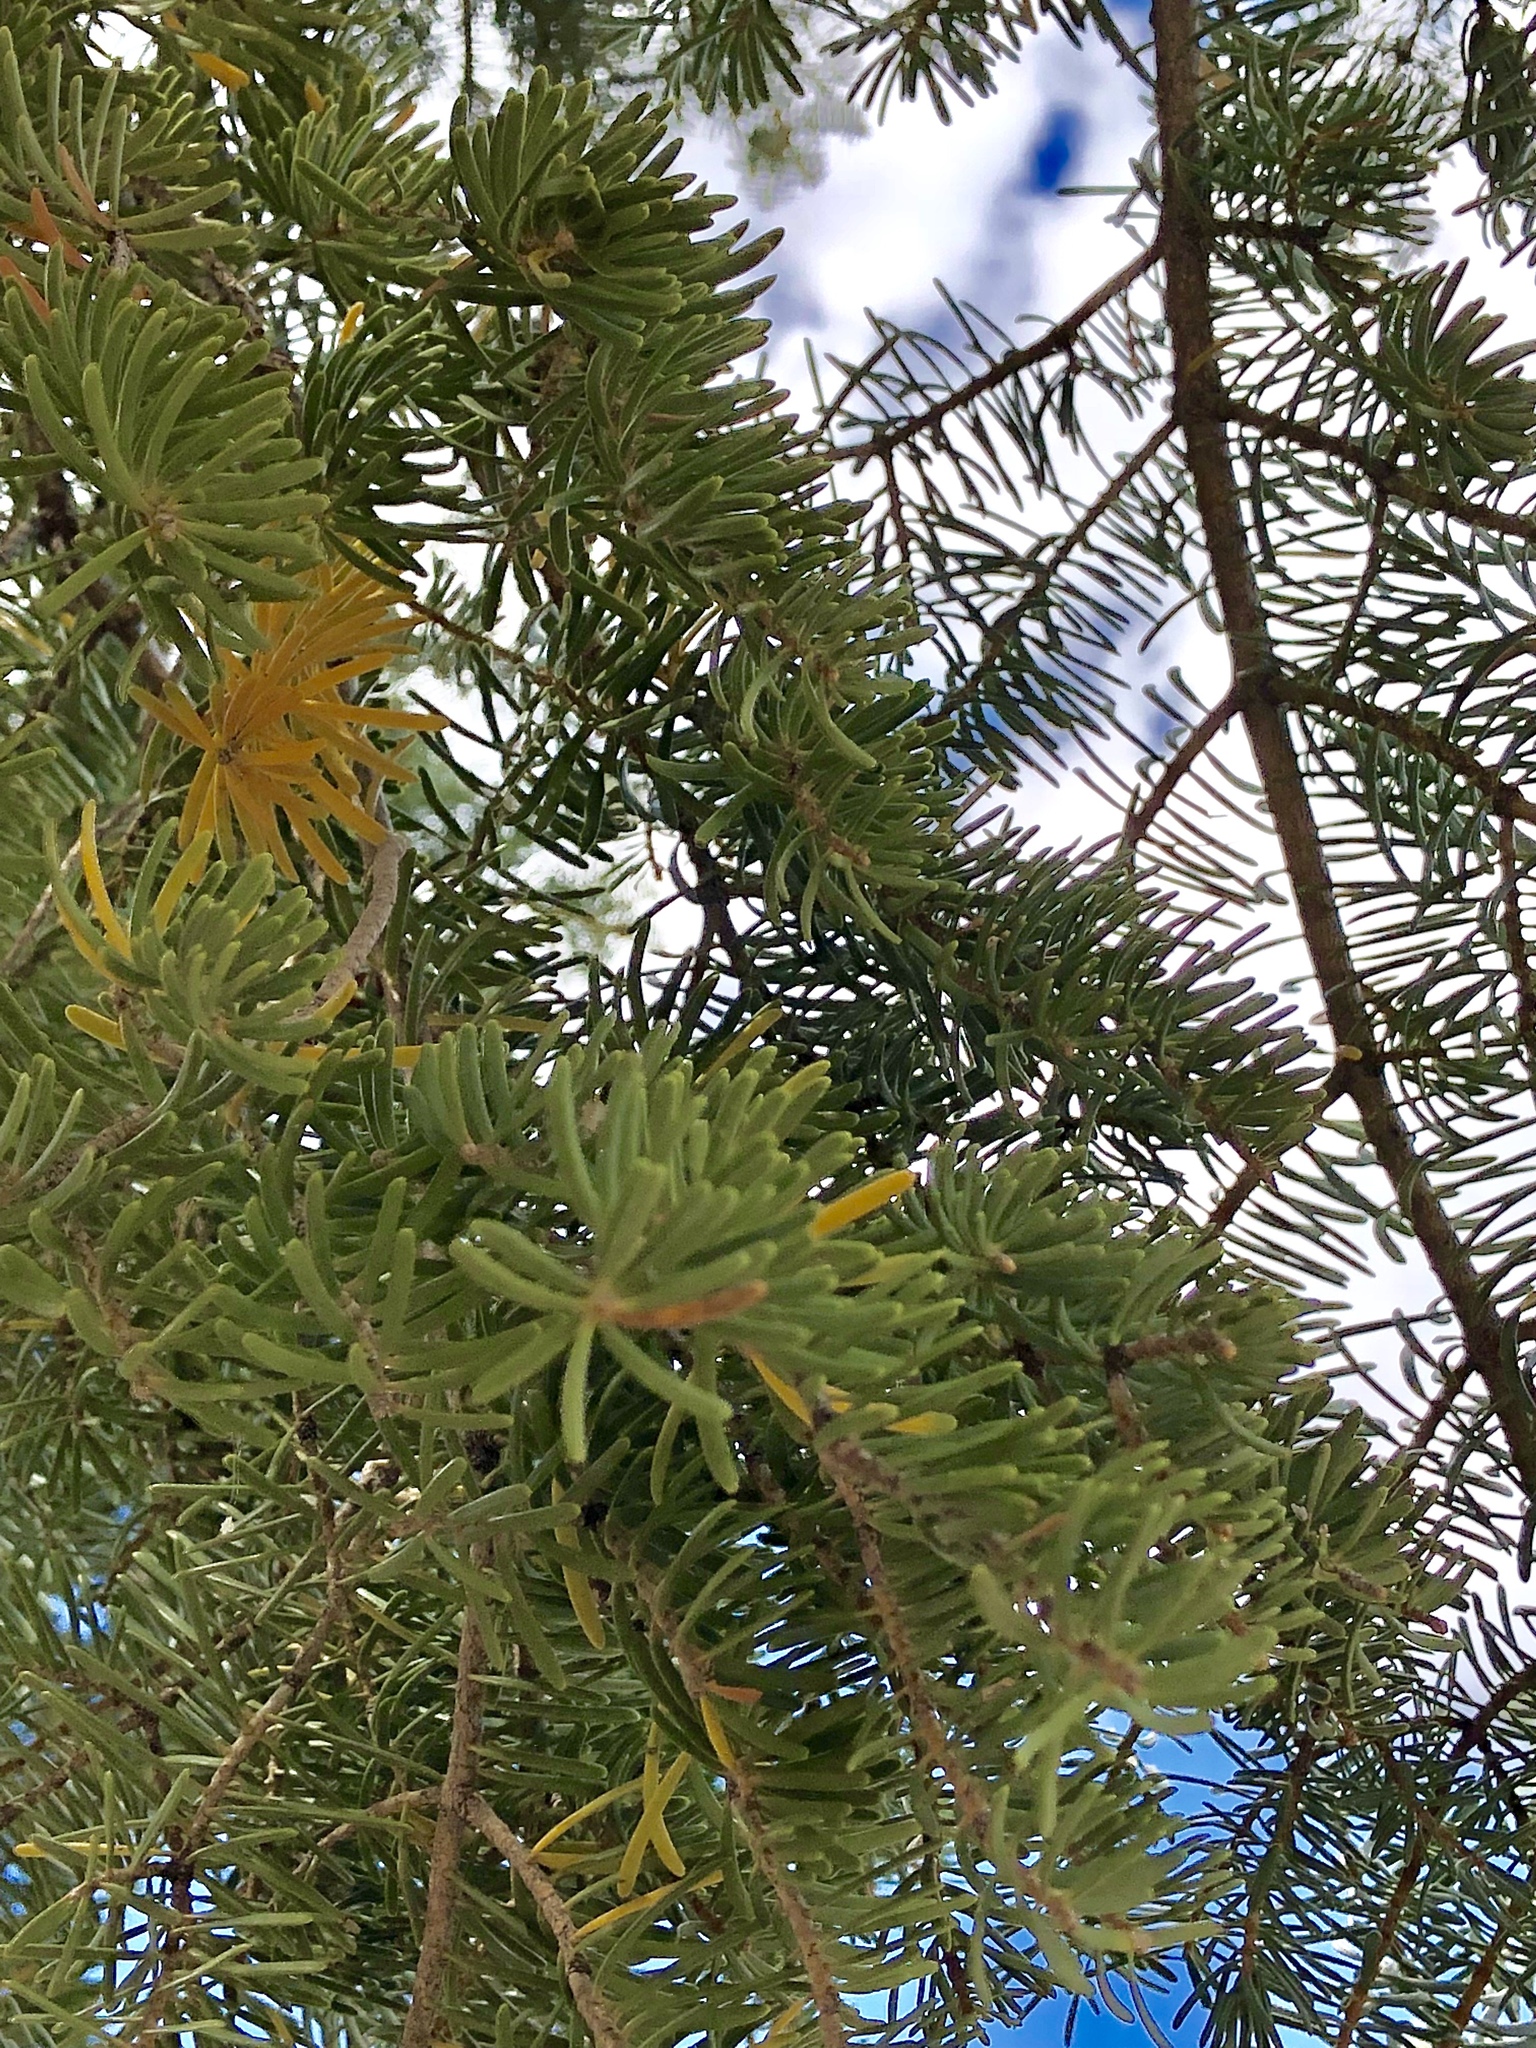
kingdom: Plantae
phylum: Tracheophyta
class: Pinopsida
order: Pinales
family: Pinaceae
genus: Abies
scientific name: Abies concolor
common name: Colorado fir
